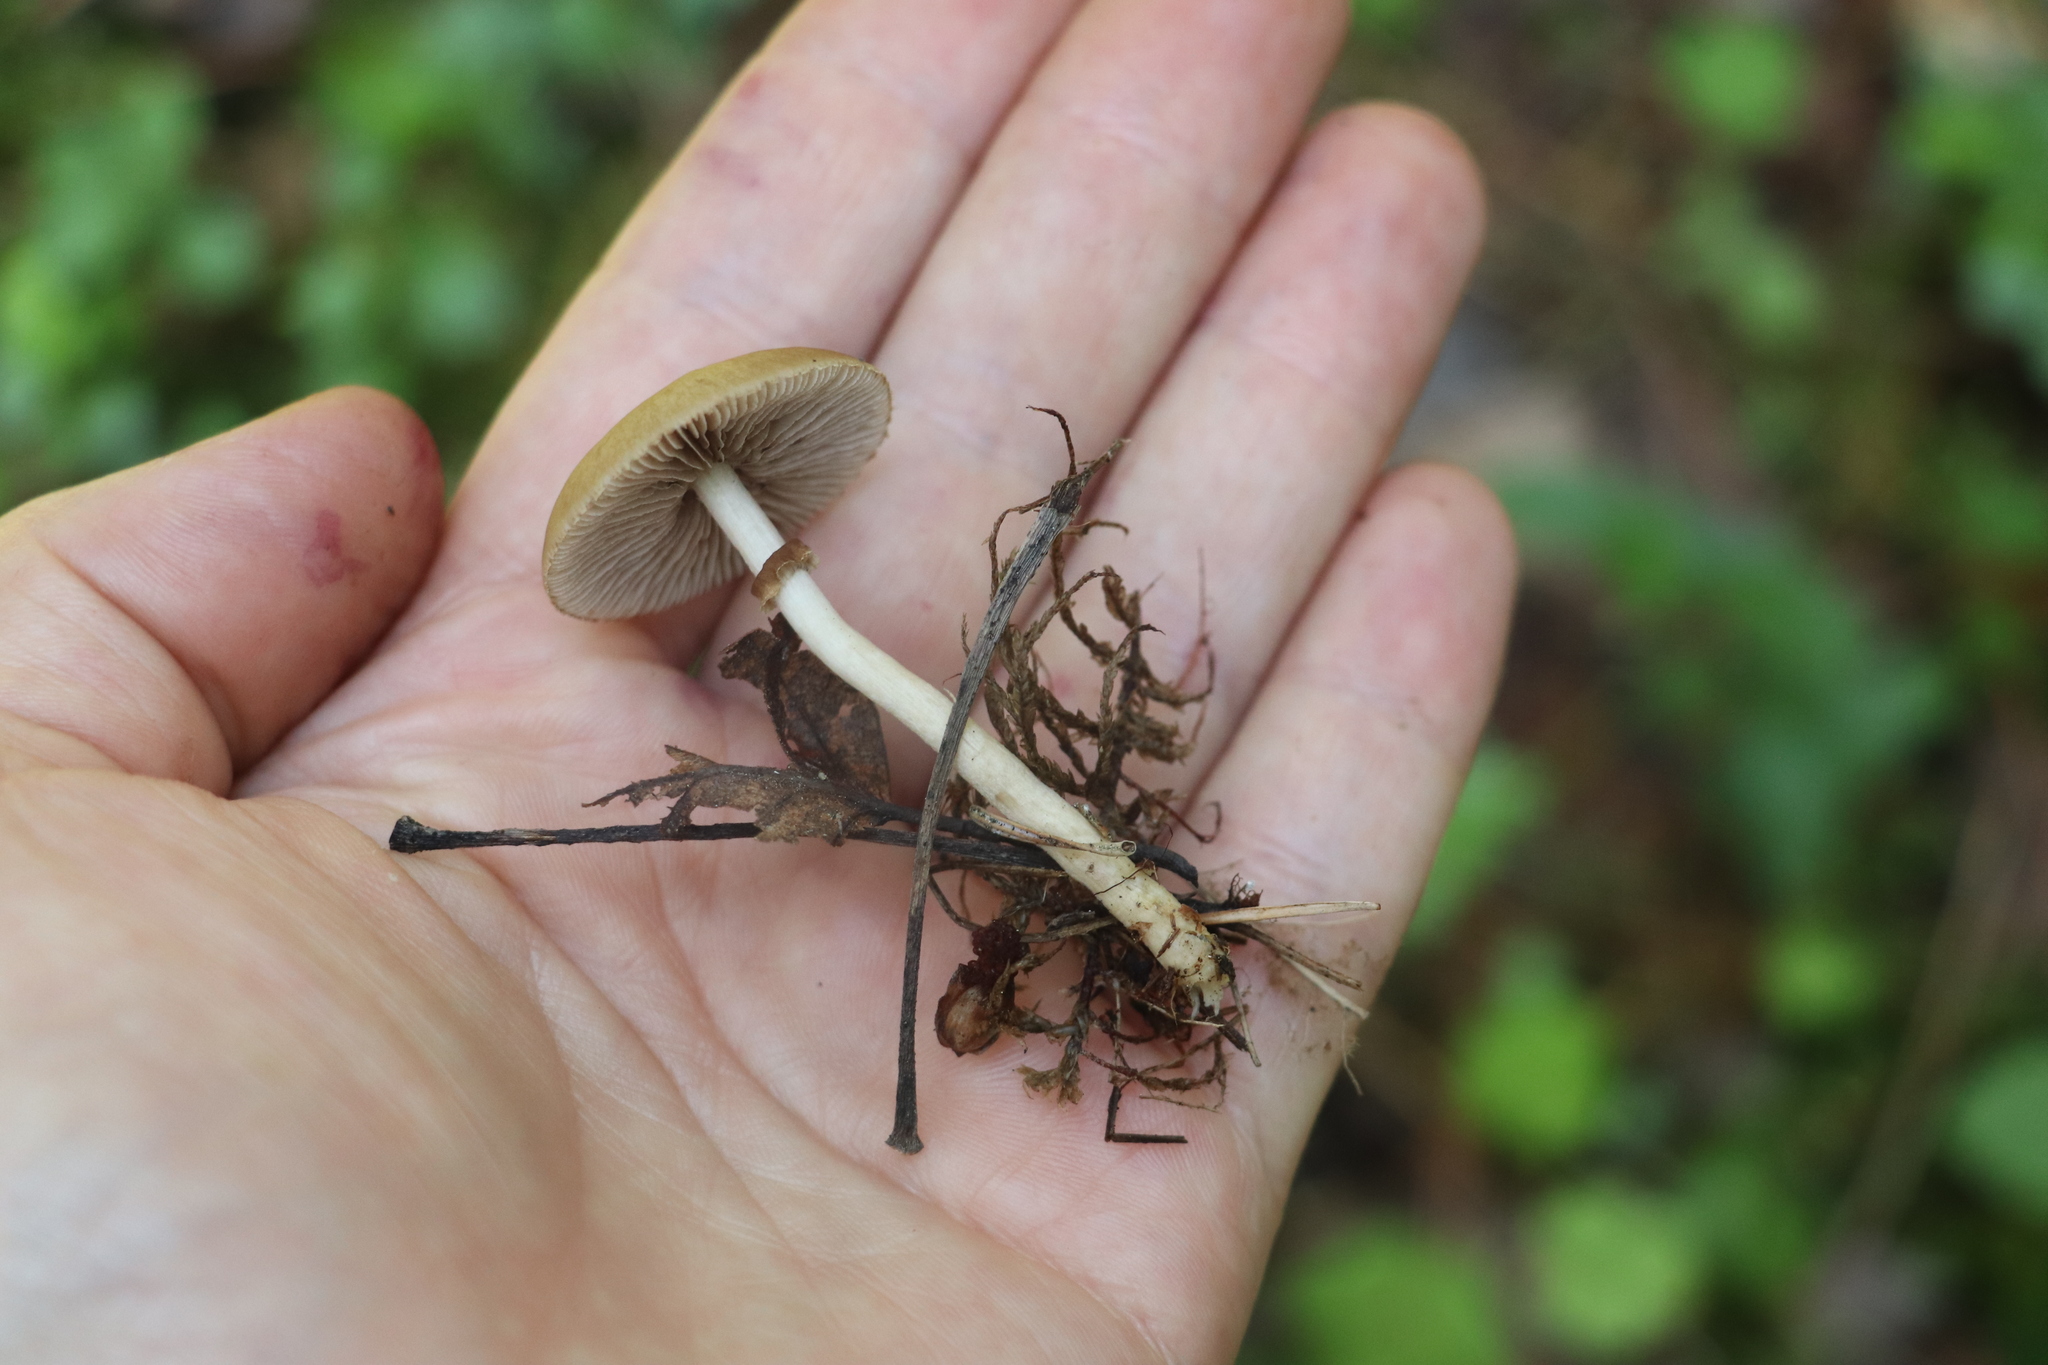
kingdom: Fungi
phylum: Basidiomycota
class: Agaricomycetes
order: Agaricales
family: Strophariaceae
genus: Agrocybe
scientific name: Agrocybe praecox
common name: Spring fieldcap
